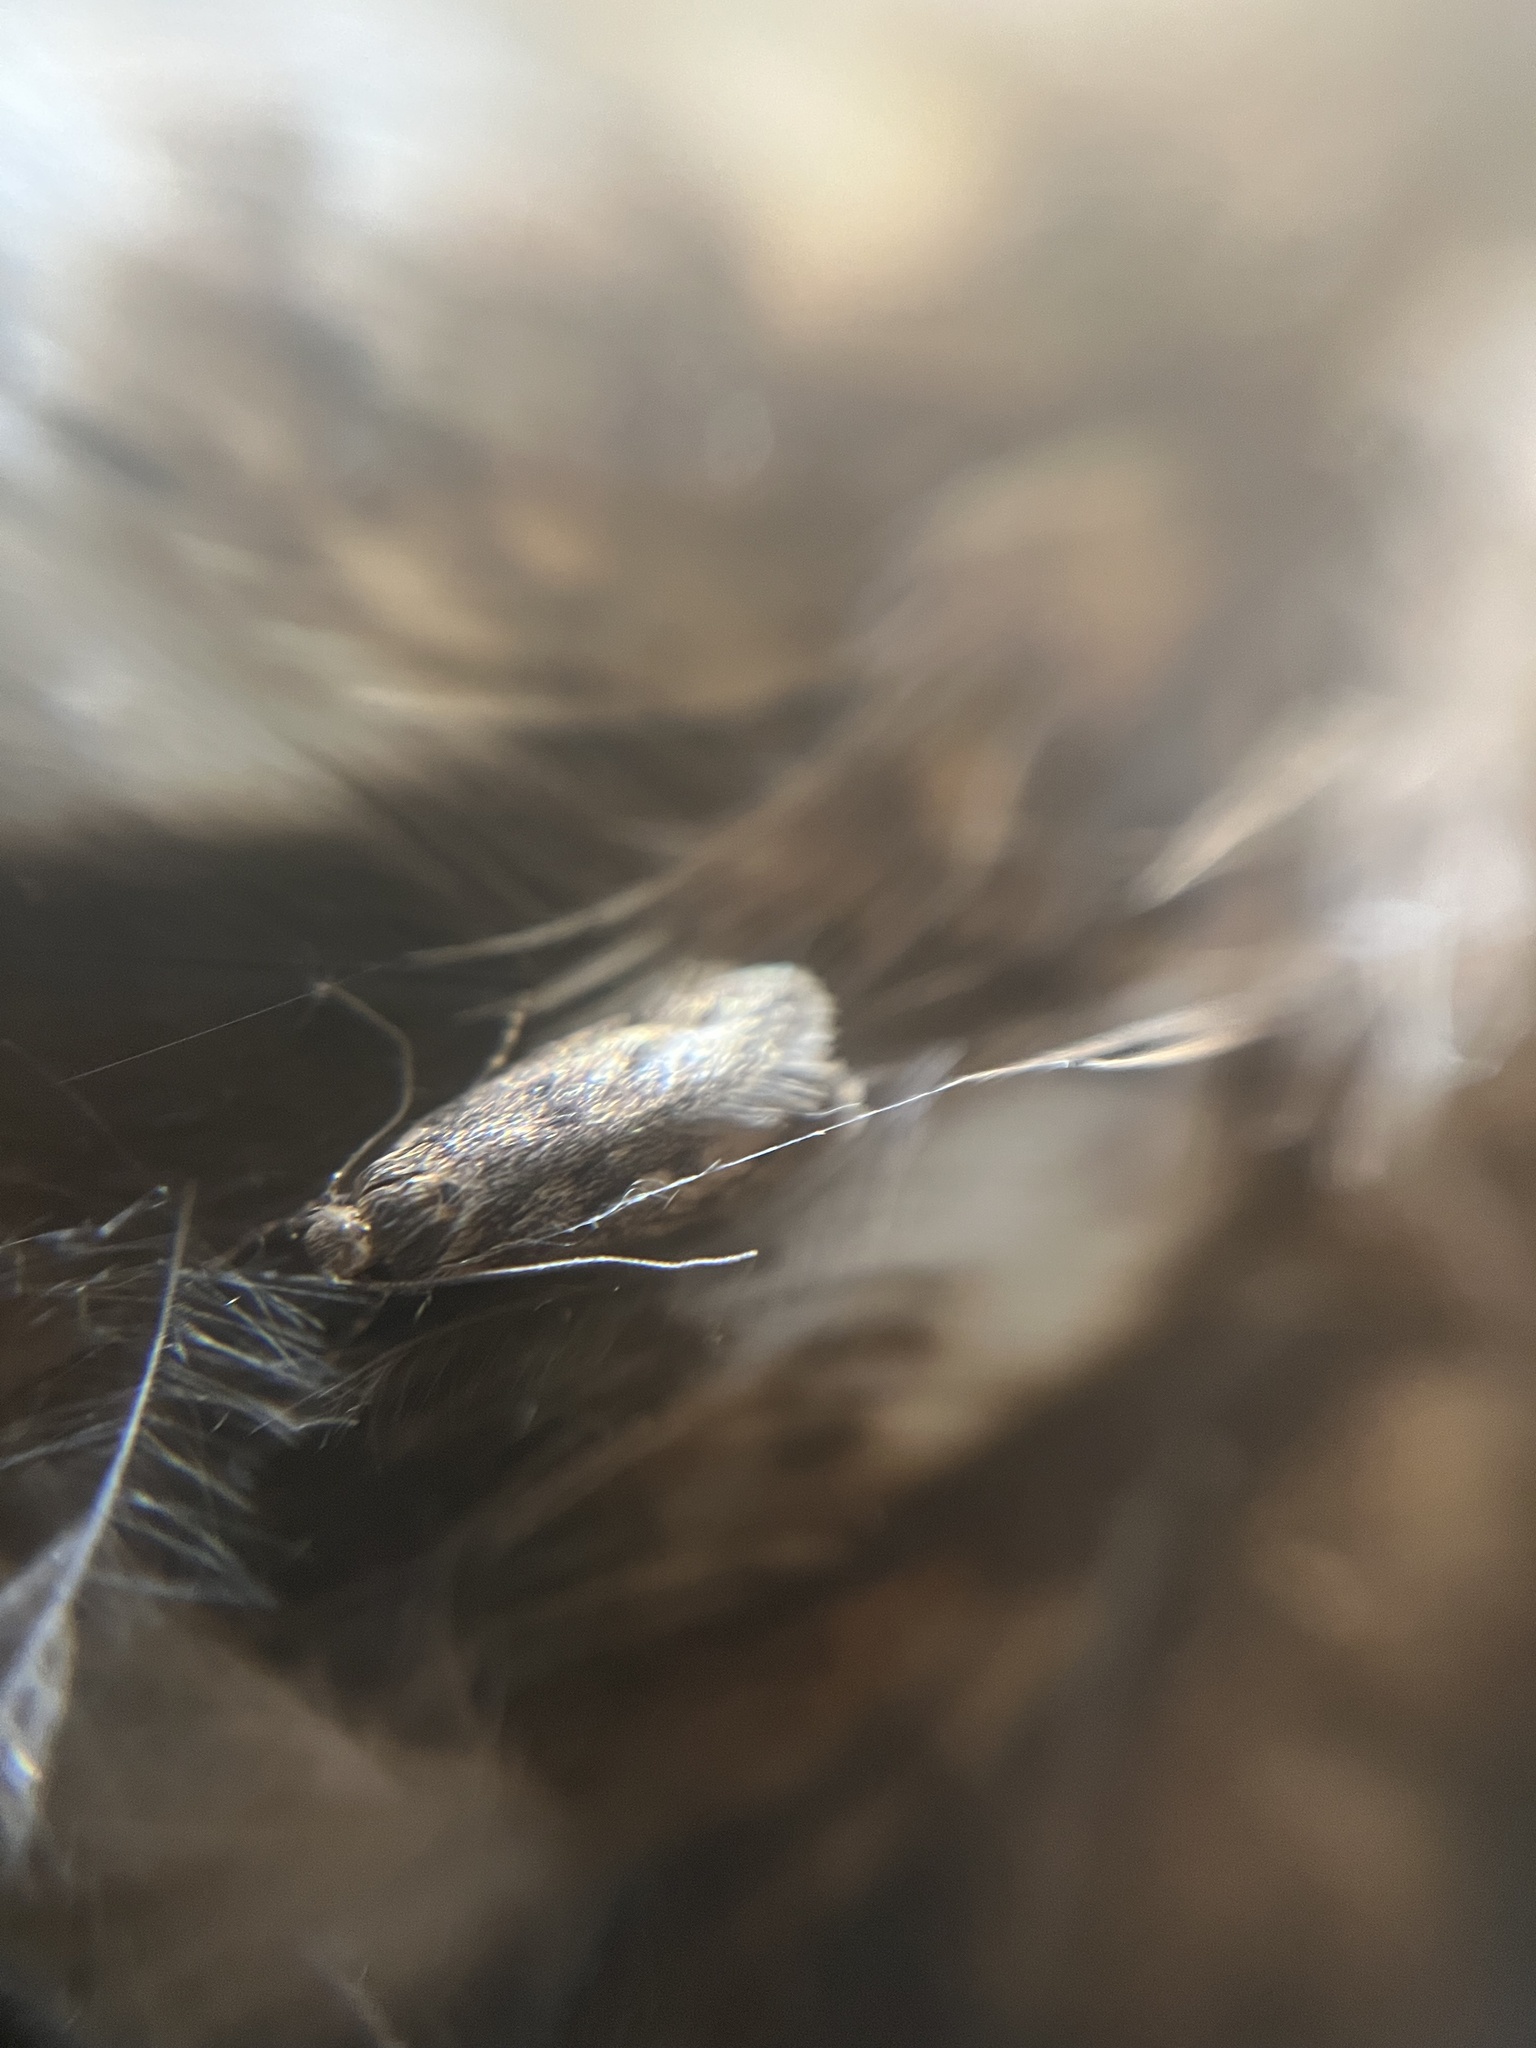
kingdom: Animalia
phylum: Arthropoda
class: Insecta
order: Lepidoptera
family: Oecophoridae
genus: Hofmannophila
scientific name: Hofmannophila pseudospretella
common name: Brown house moth
